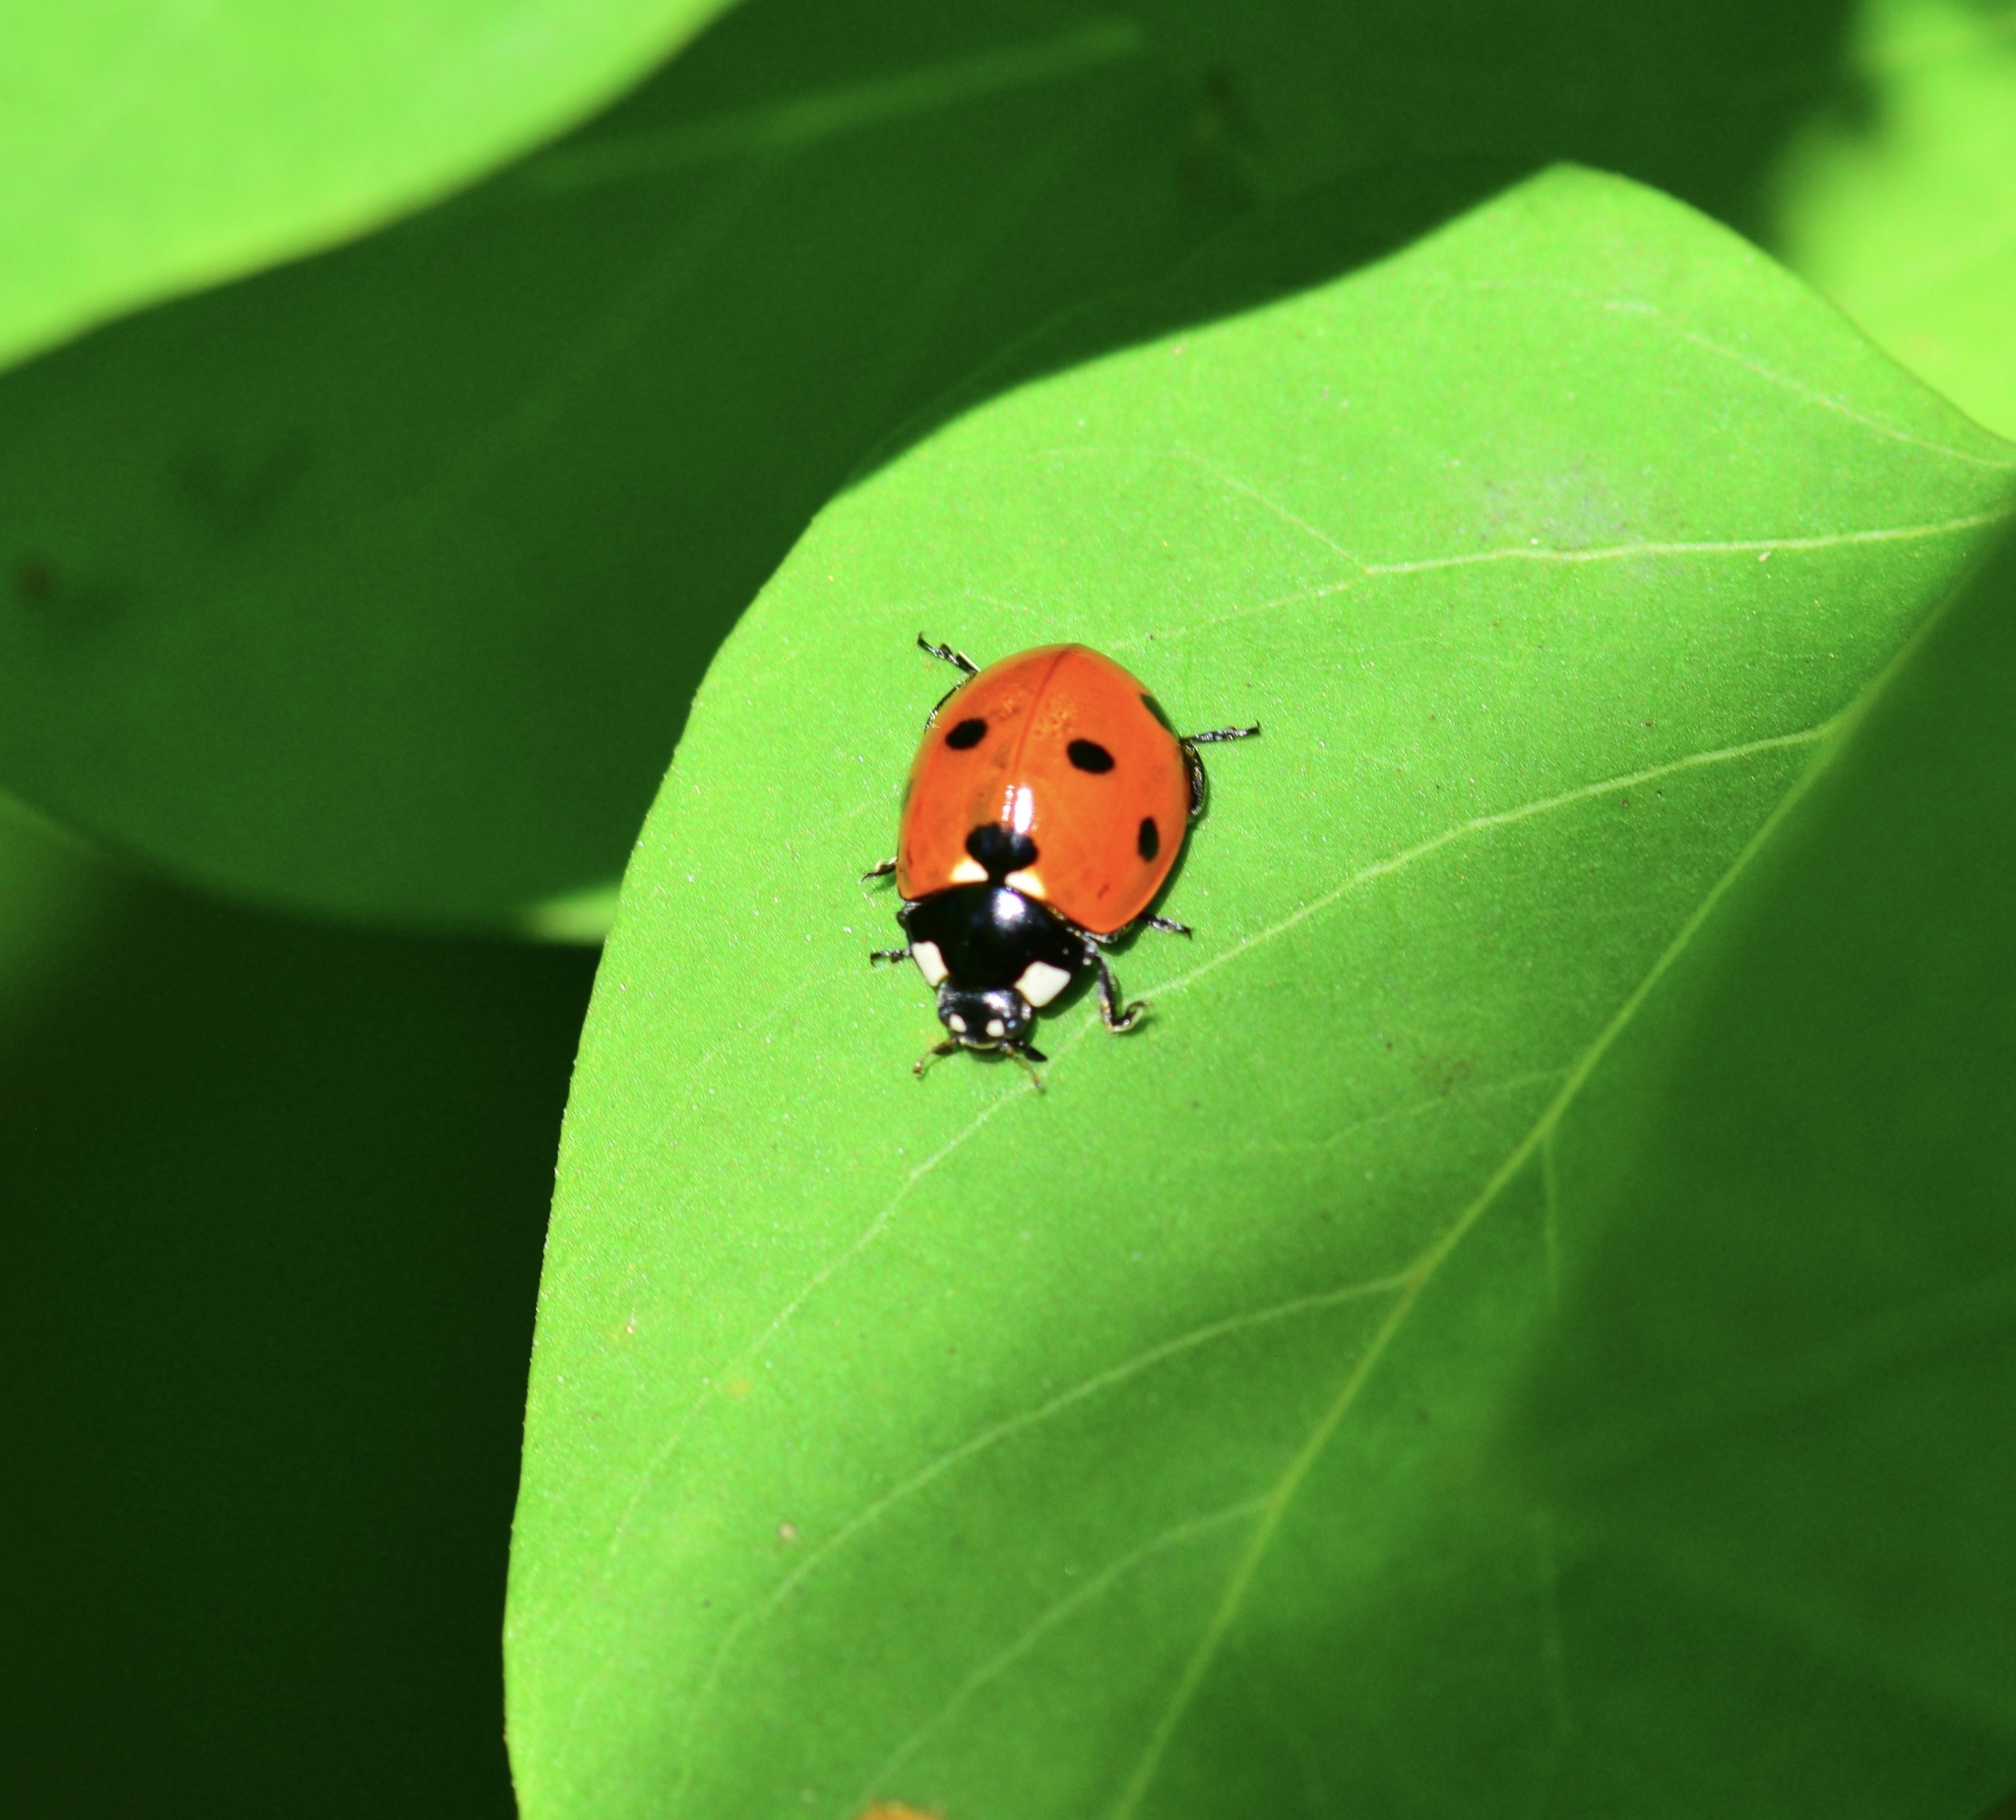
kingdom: Animalia
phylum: Arthropoda
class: Insecta
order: Coleoptera
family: Coccinellidae
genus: Coccinella
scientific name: Coccinella septempunctata
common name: Sevenspotted lady beetle
